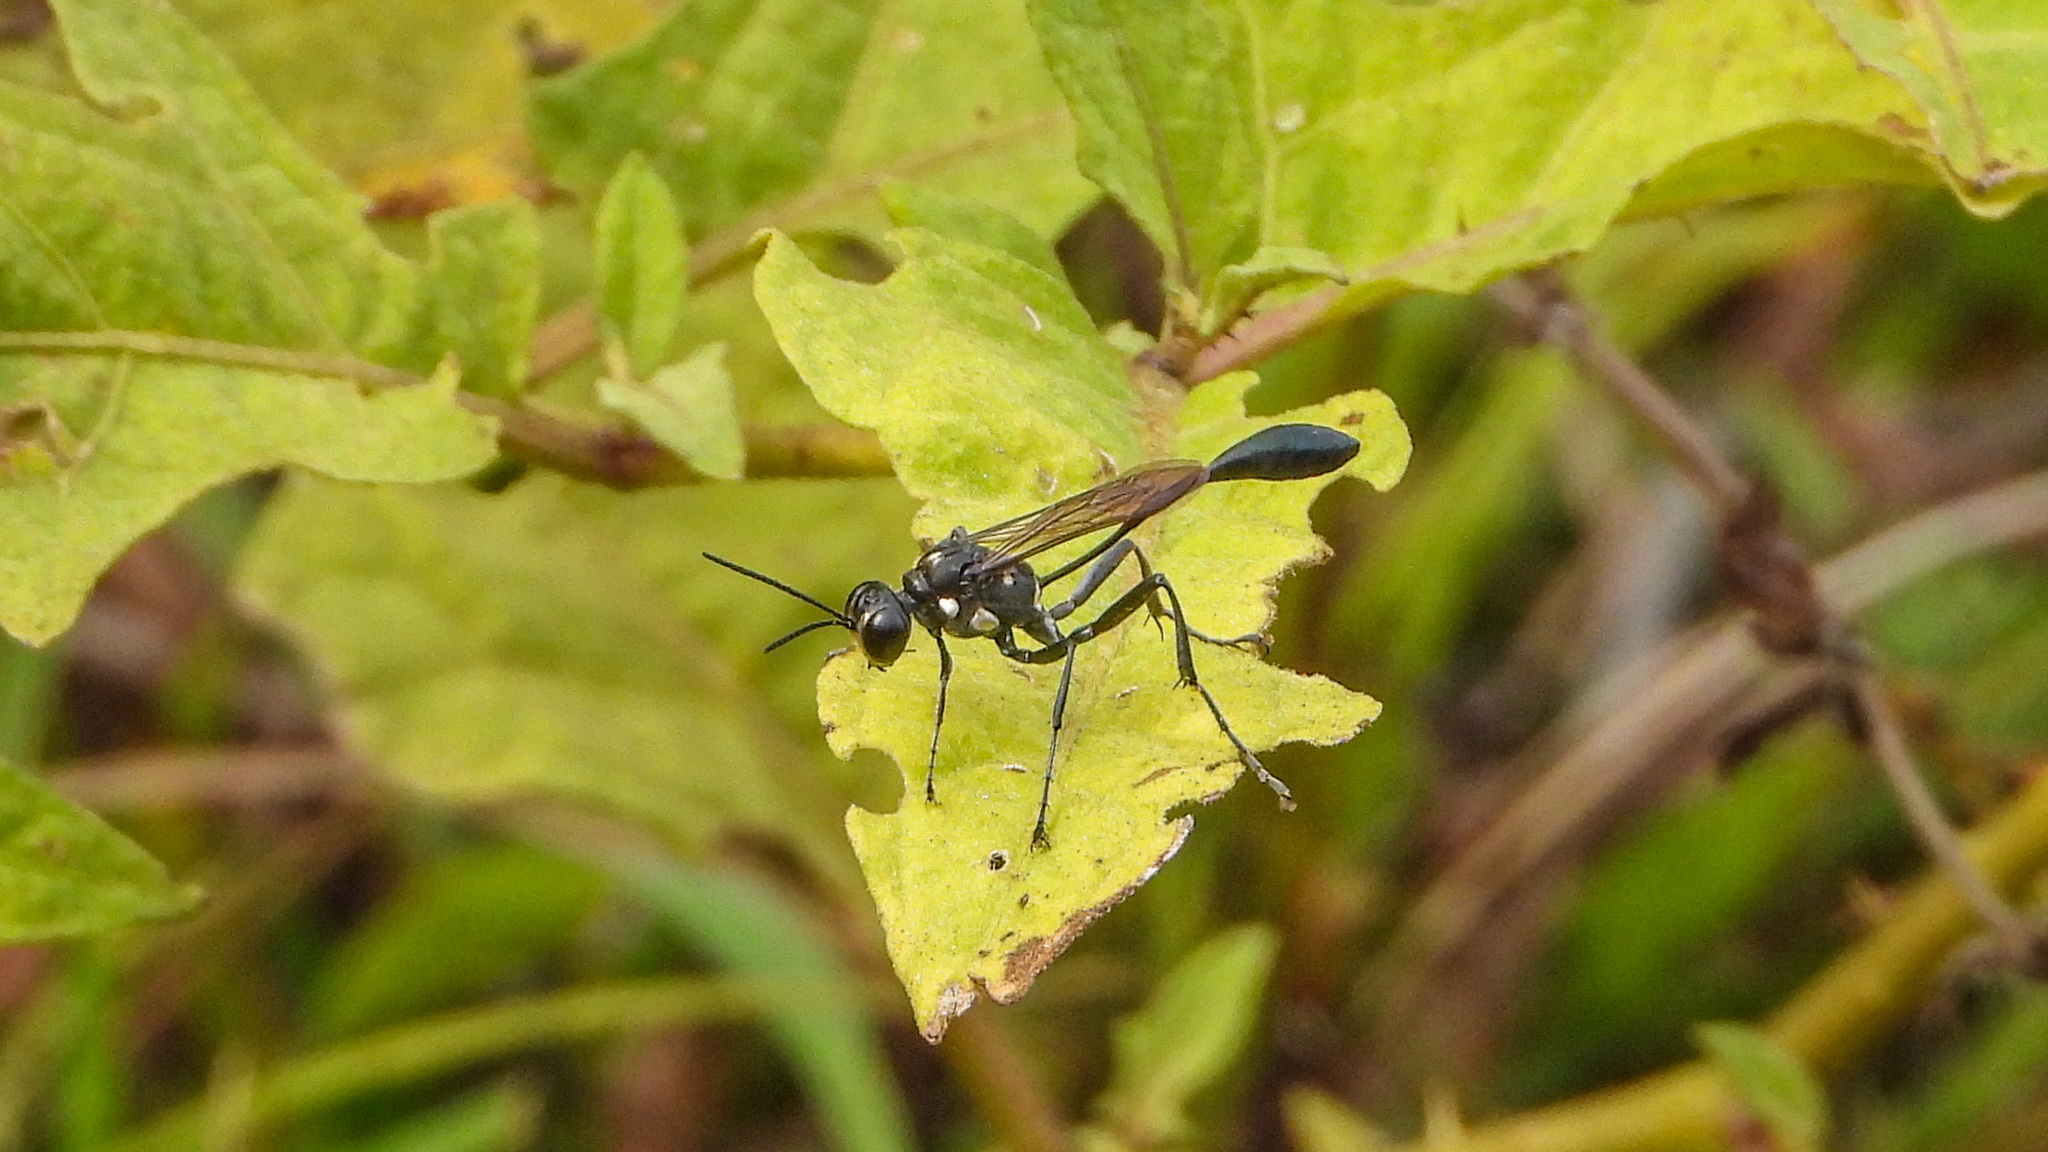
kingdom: Animalia
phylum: Arthropoda
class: Insecta
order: Hymenoptera
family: Sphecidae
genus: Eremnophila
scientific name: Eremnophila aureonotata
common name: Gold-marked thread-waisted wasp
